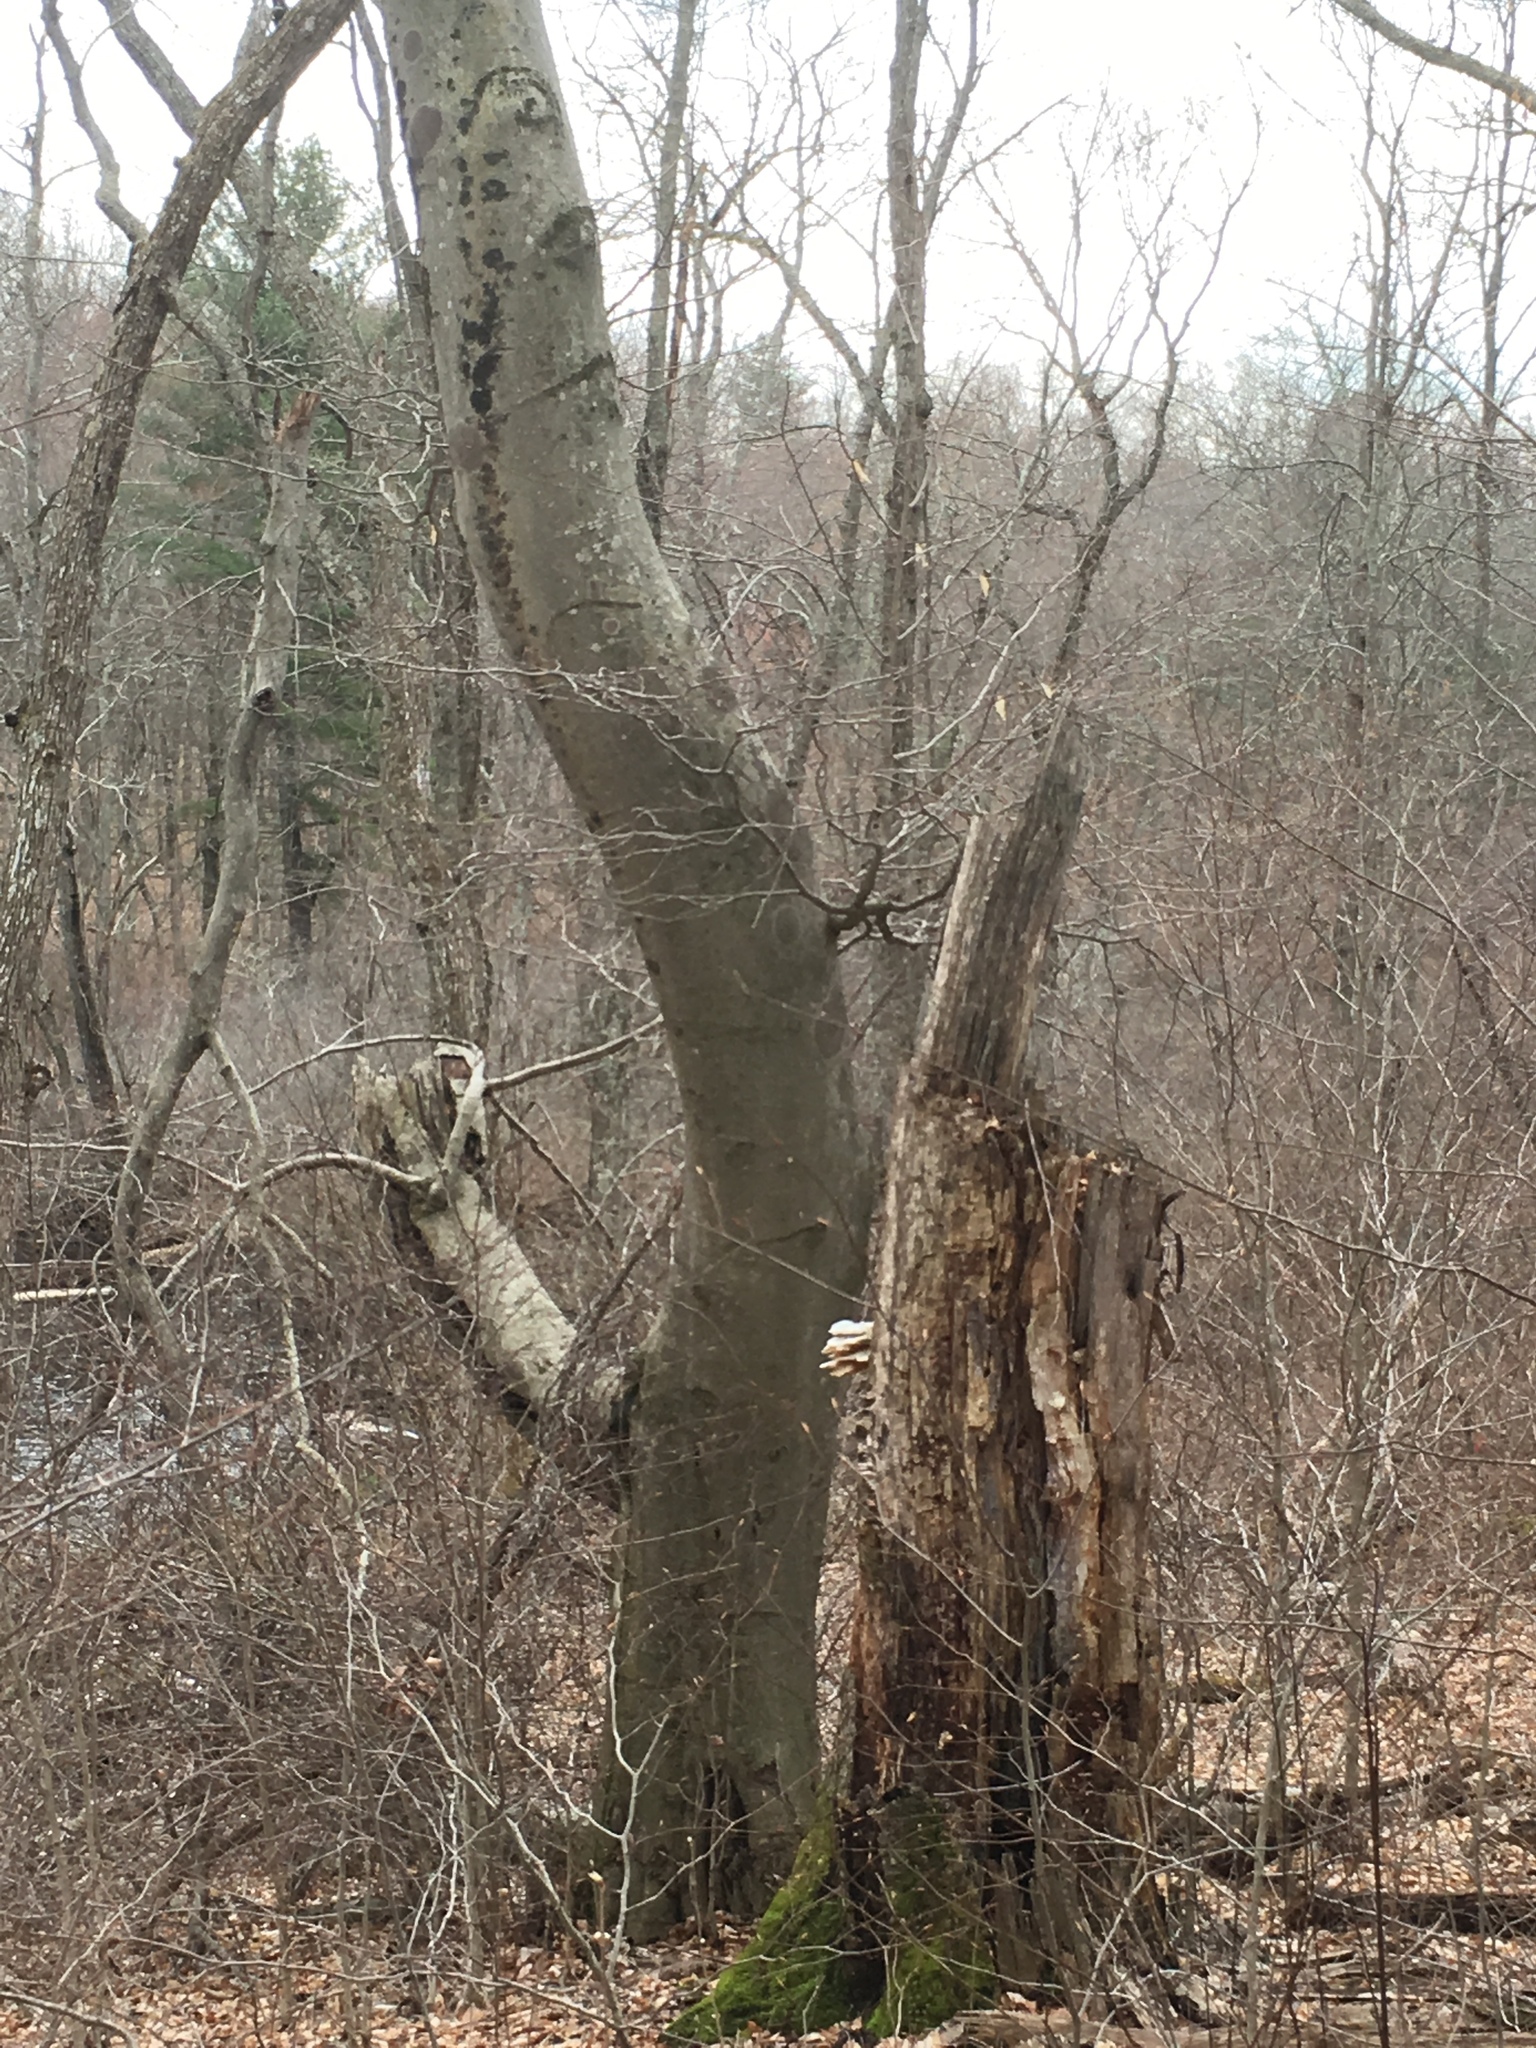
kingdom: Plantae
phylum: Tracheophyta
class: Magnoliopsida
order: Fagales
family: Fagaceae
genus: Fagus
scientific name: Fagus grandifolia
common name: American beech
